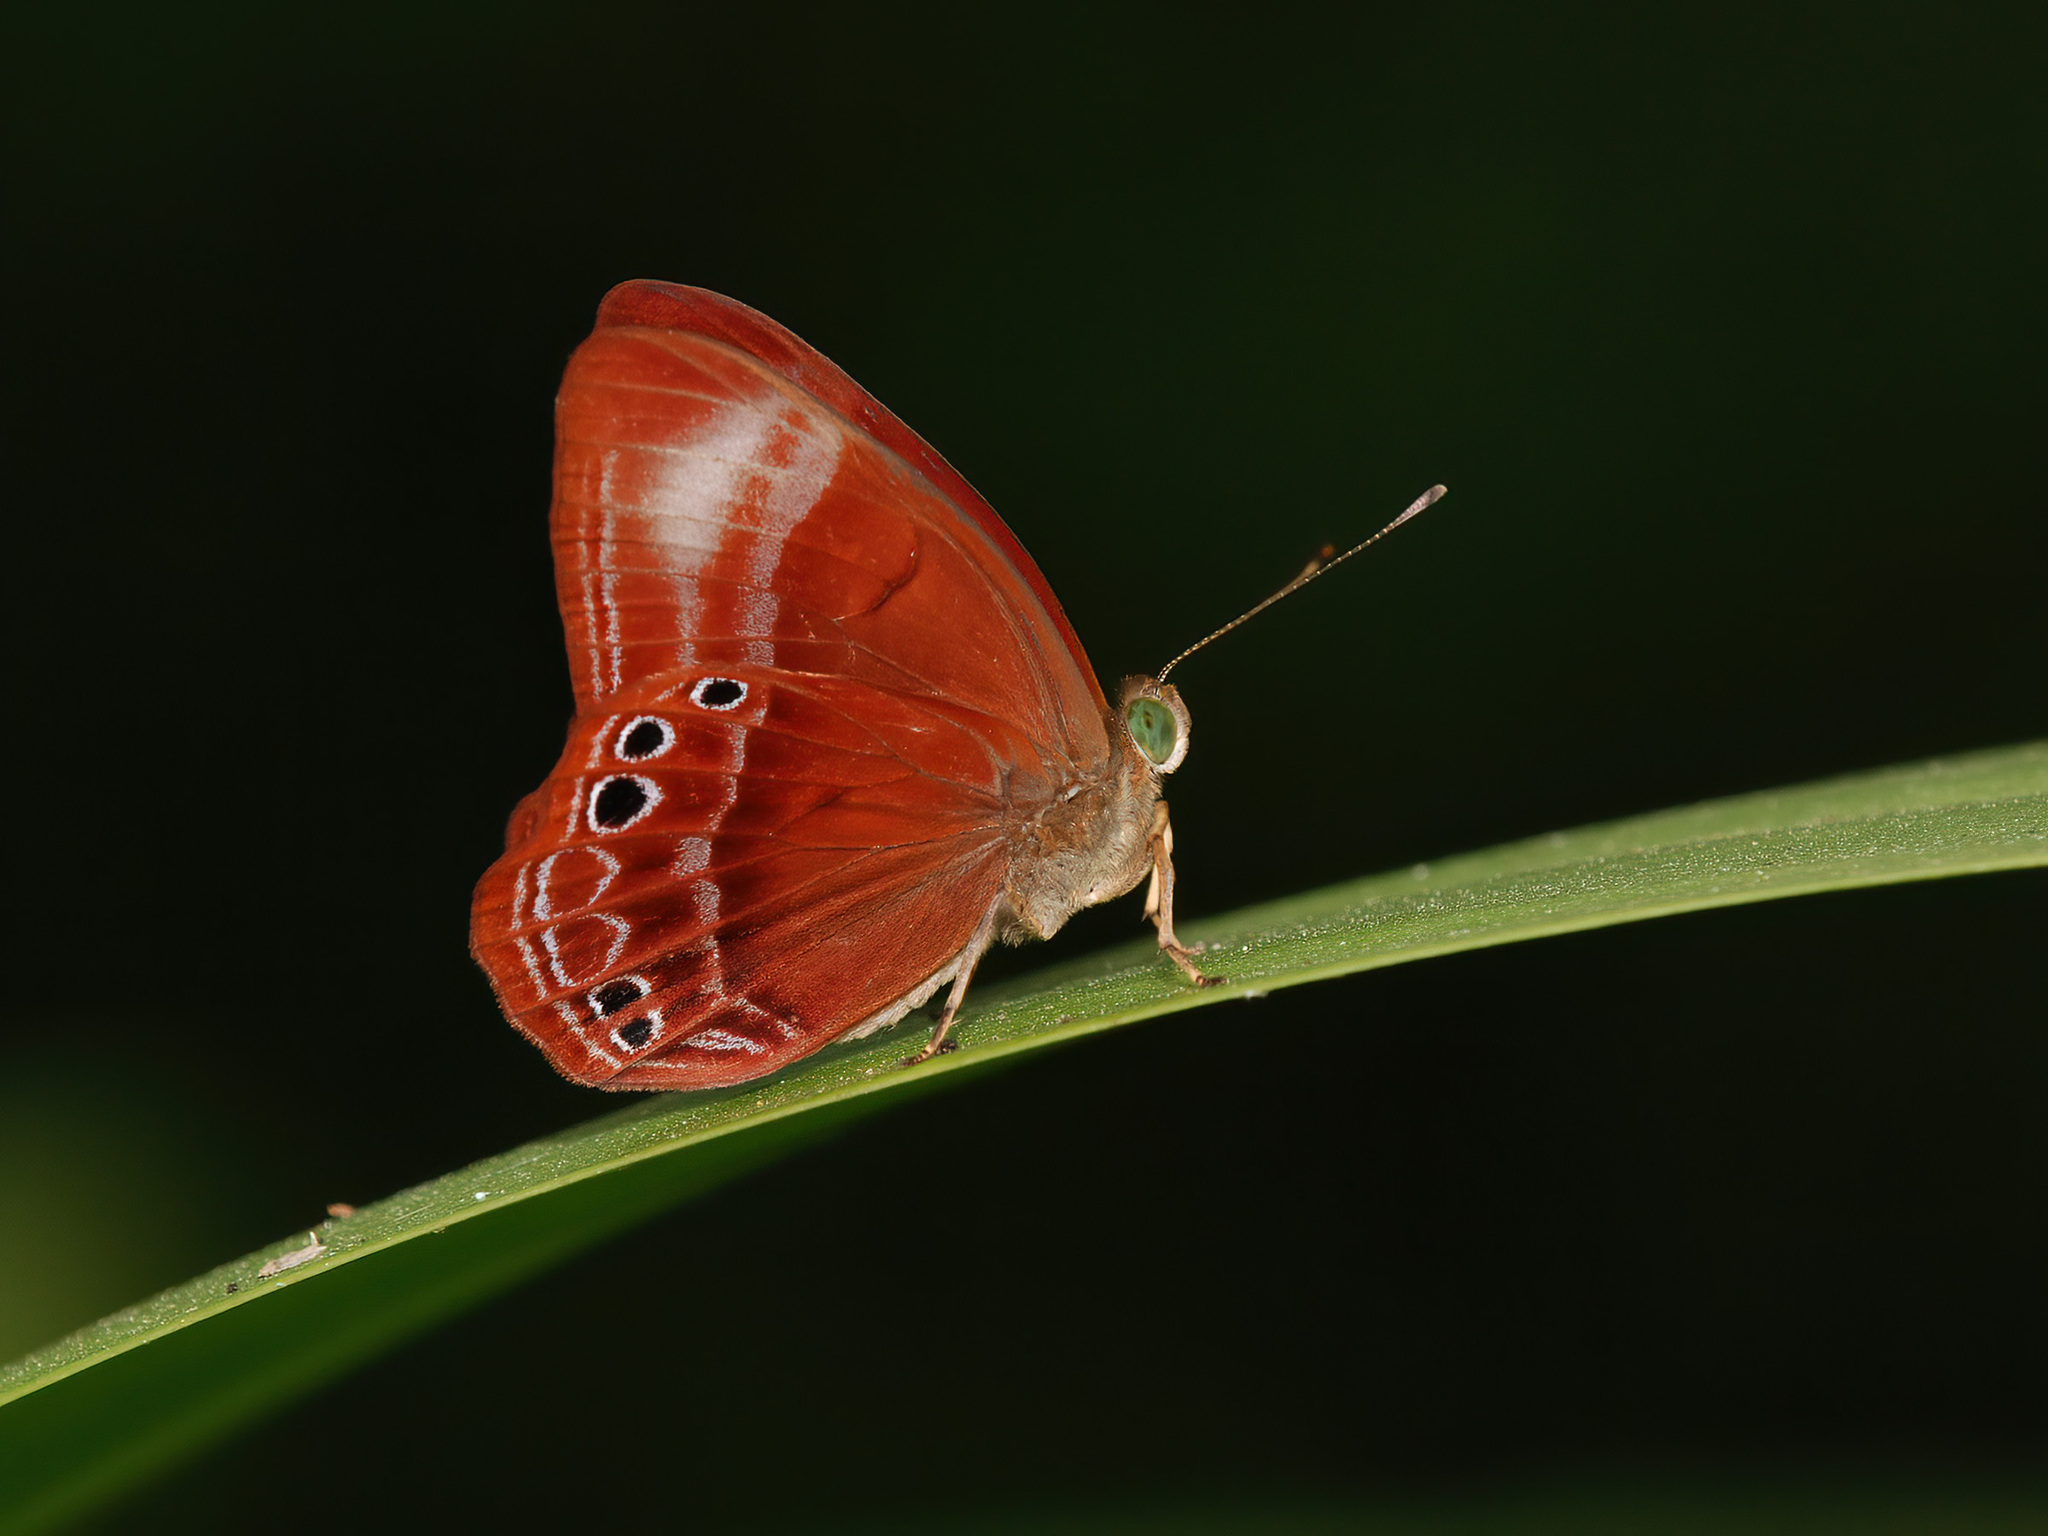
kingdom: Animalia
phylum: Arthropoda
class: Insecta
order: Lepidoptera
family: Lycaenidae
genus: Abisara
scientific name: Abisara geza
